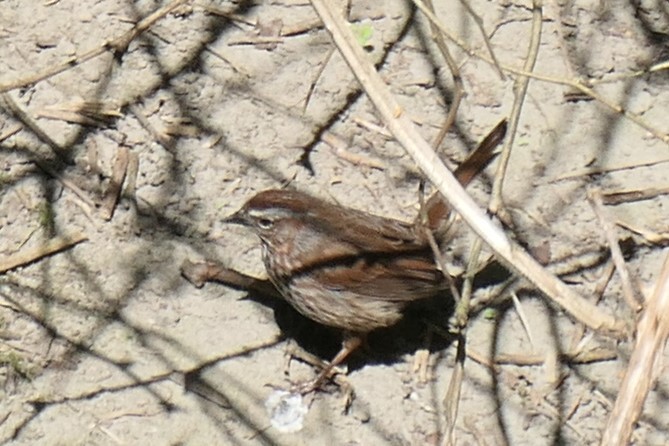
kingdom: Animalia
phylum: Chordata
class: Aves
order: Passeriformes
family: Passerellidae
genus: Melospiza
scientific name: Melospiza melodia
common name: Song sparrow
